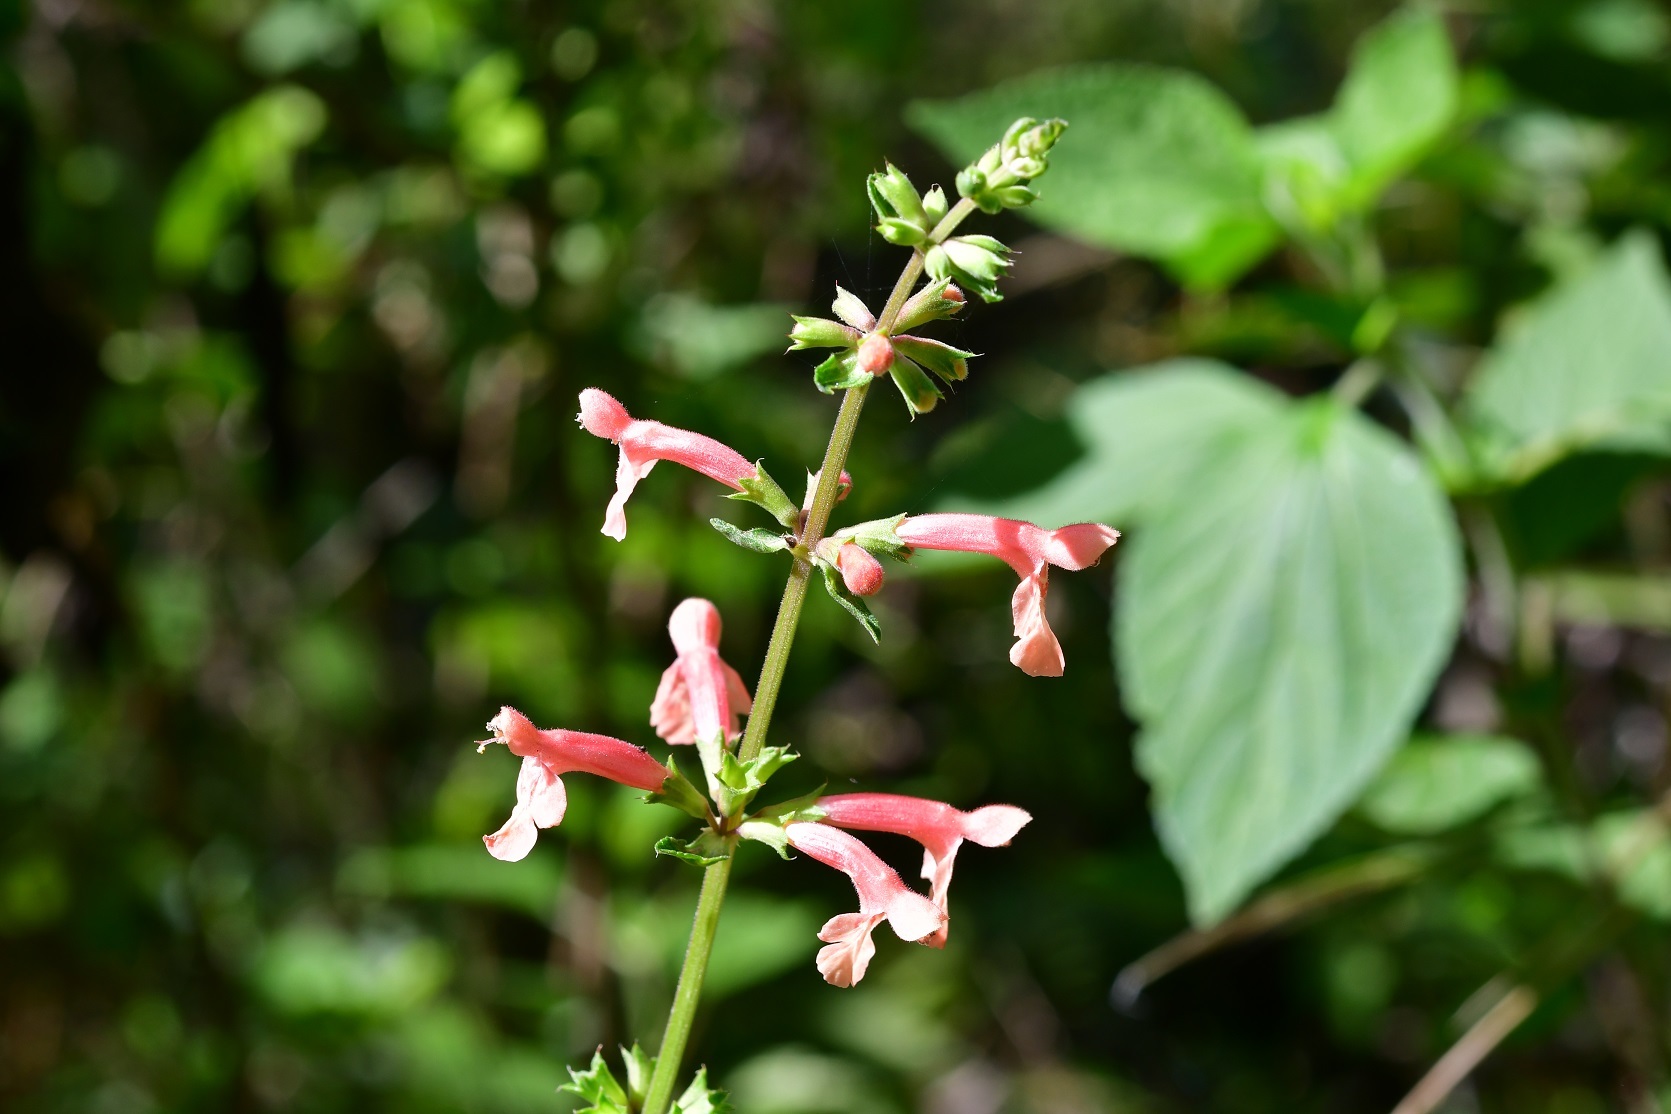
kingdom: Plantae
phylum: Tracheophyta
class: Magnoliopsida
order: Lamiales
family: Lamiaceae
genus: Stachys
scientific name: Stachys coccinea
